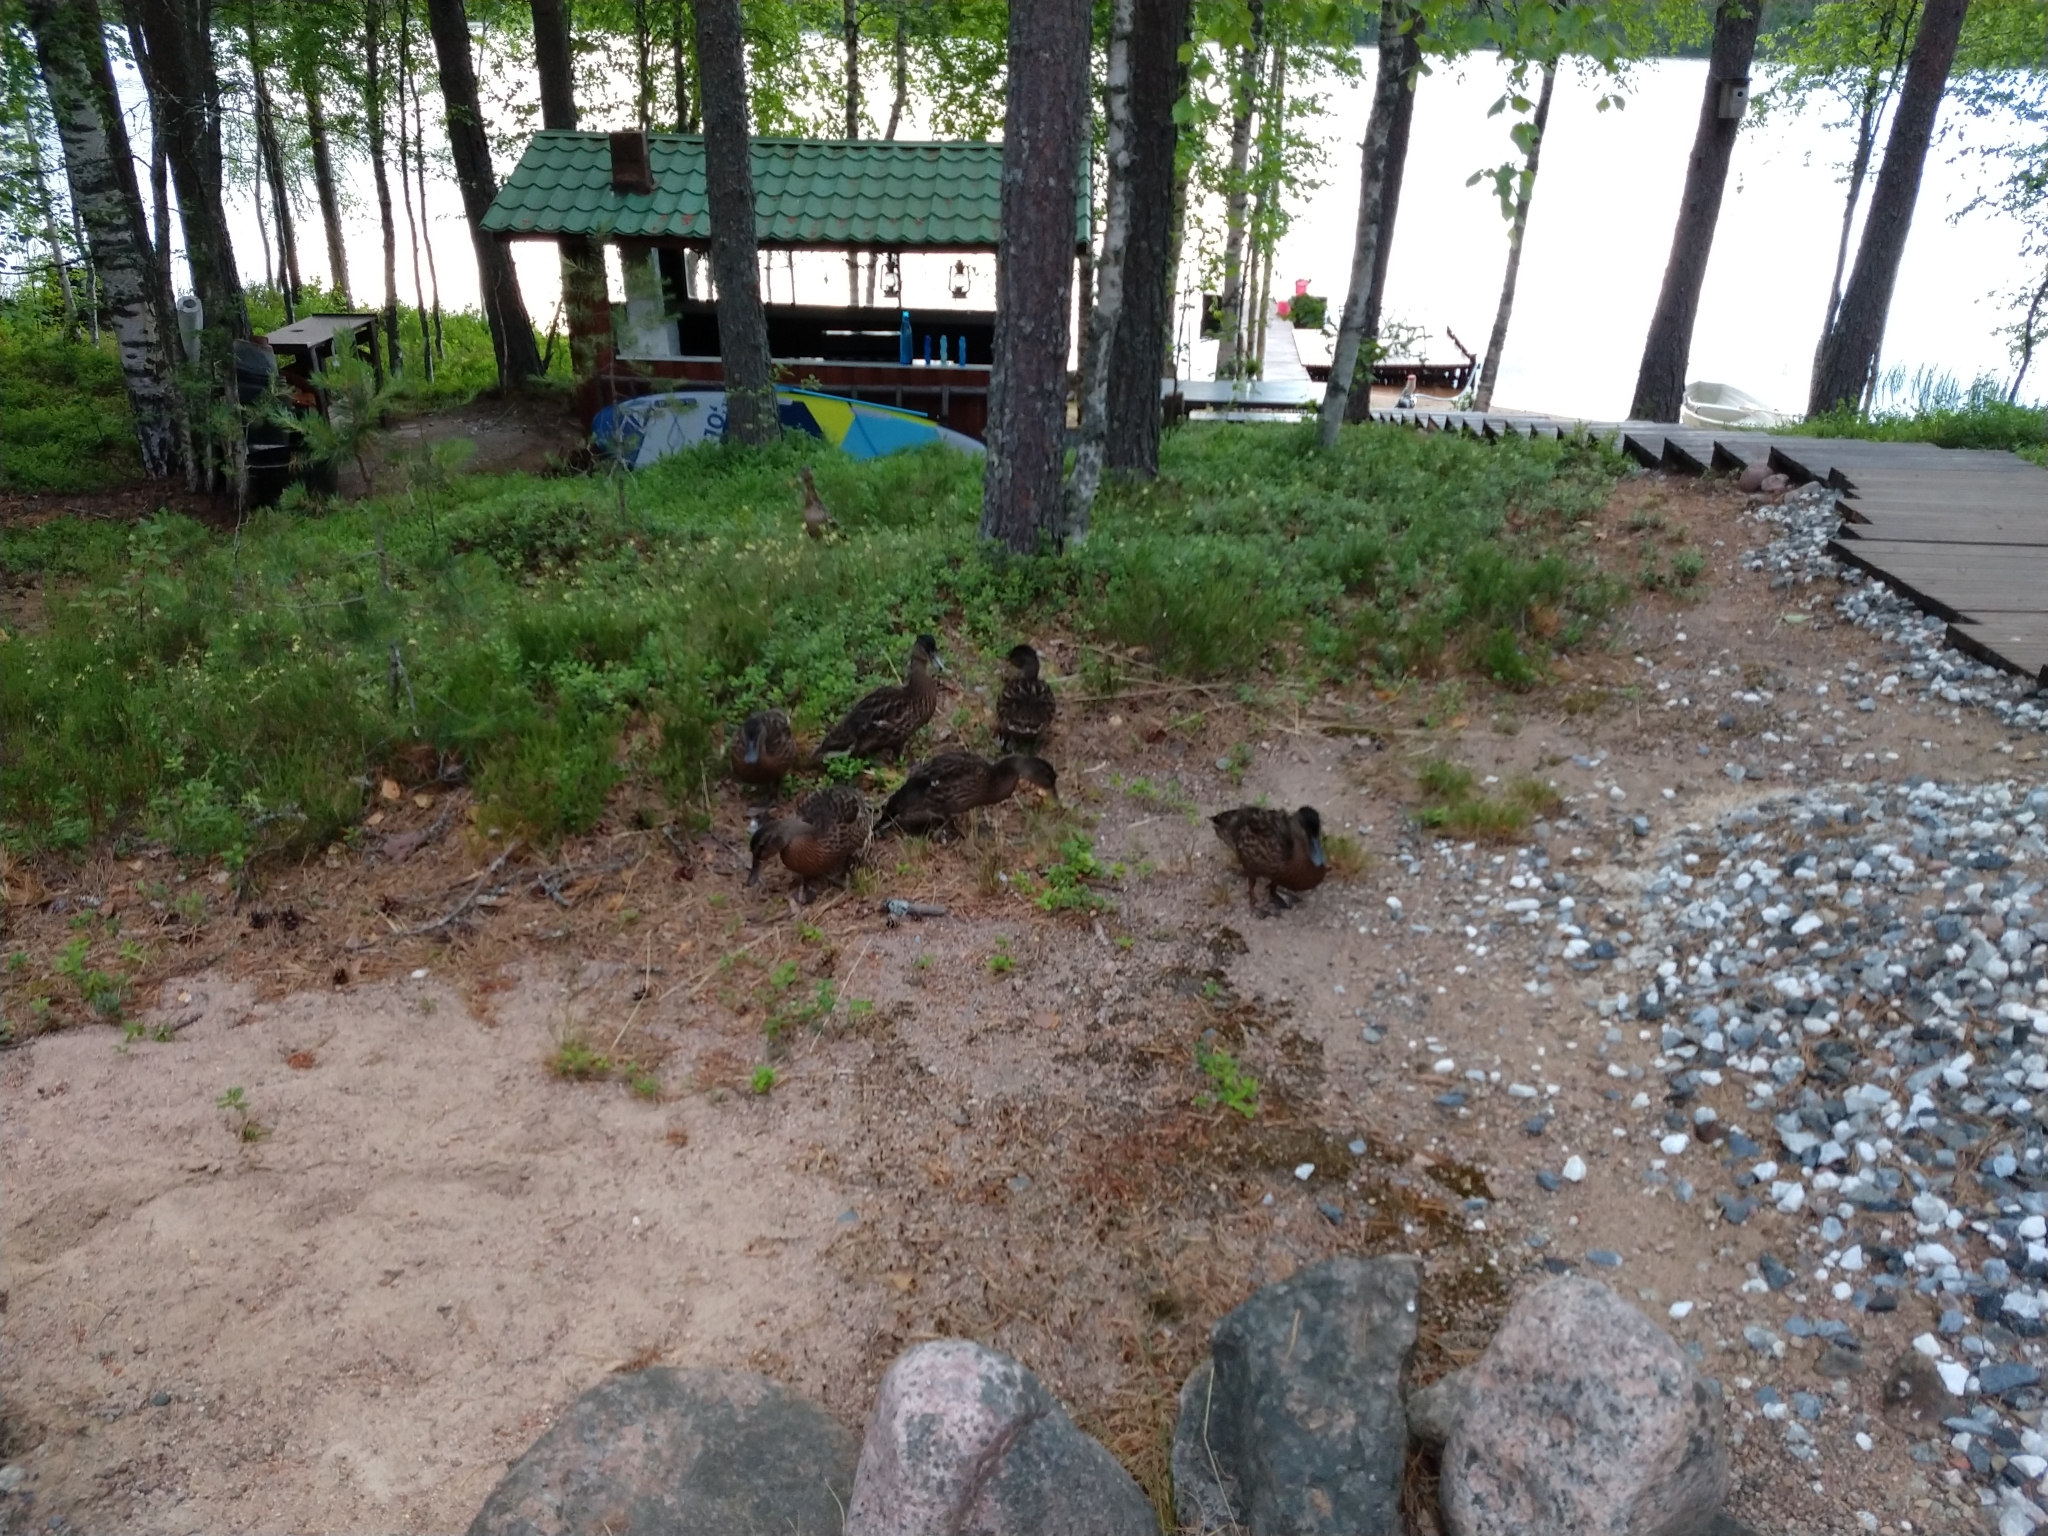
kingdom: Animalia
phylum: Chordata
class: Aves
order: Anseriformes
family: Anatidae
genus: Anas
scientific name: Anas platyrhynchos
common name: Mallard
